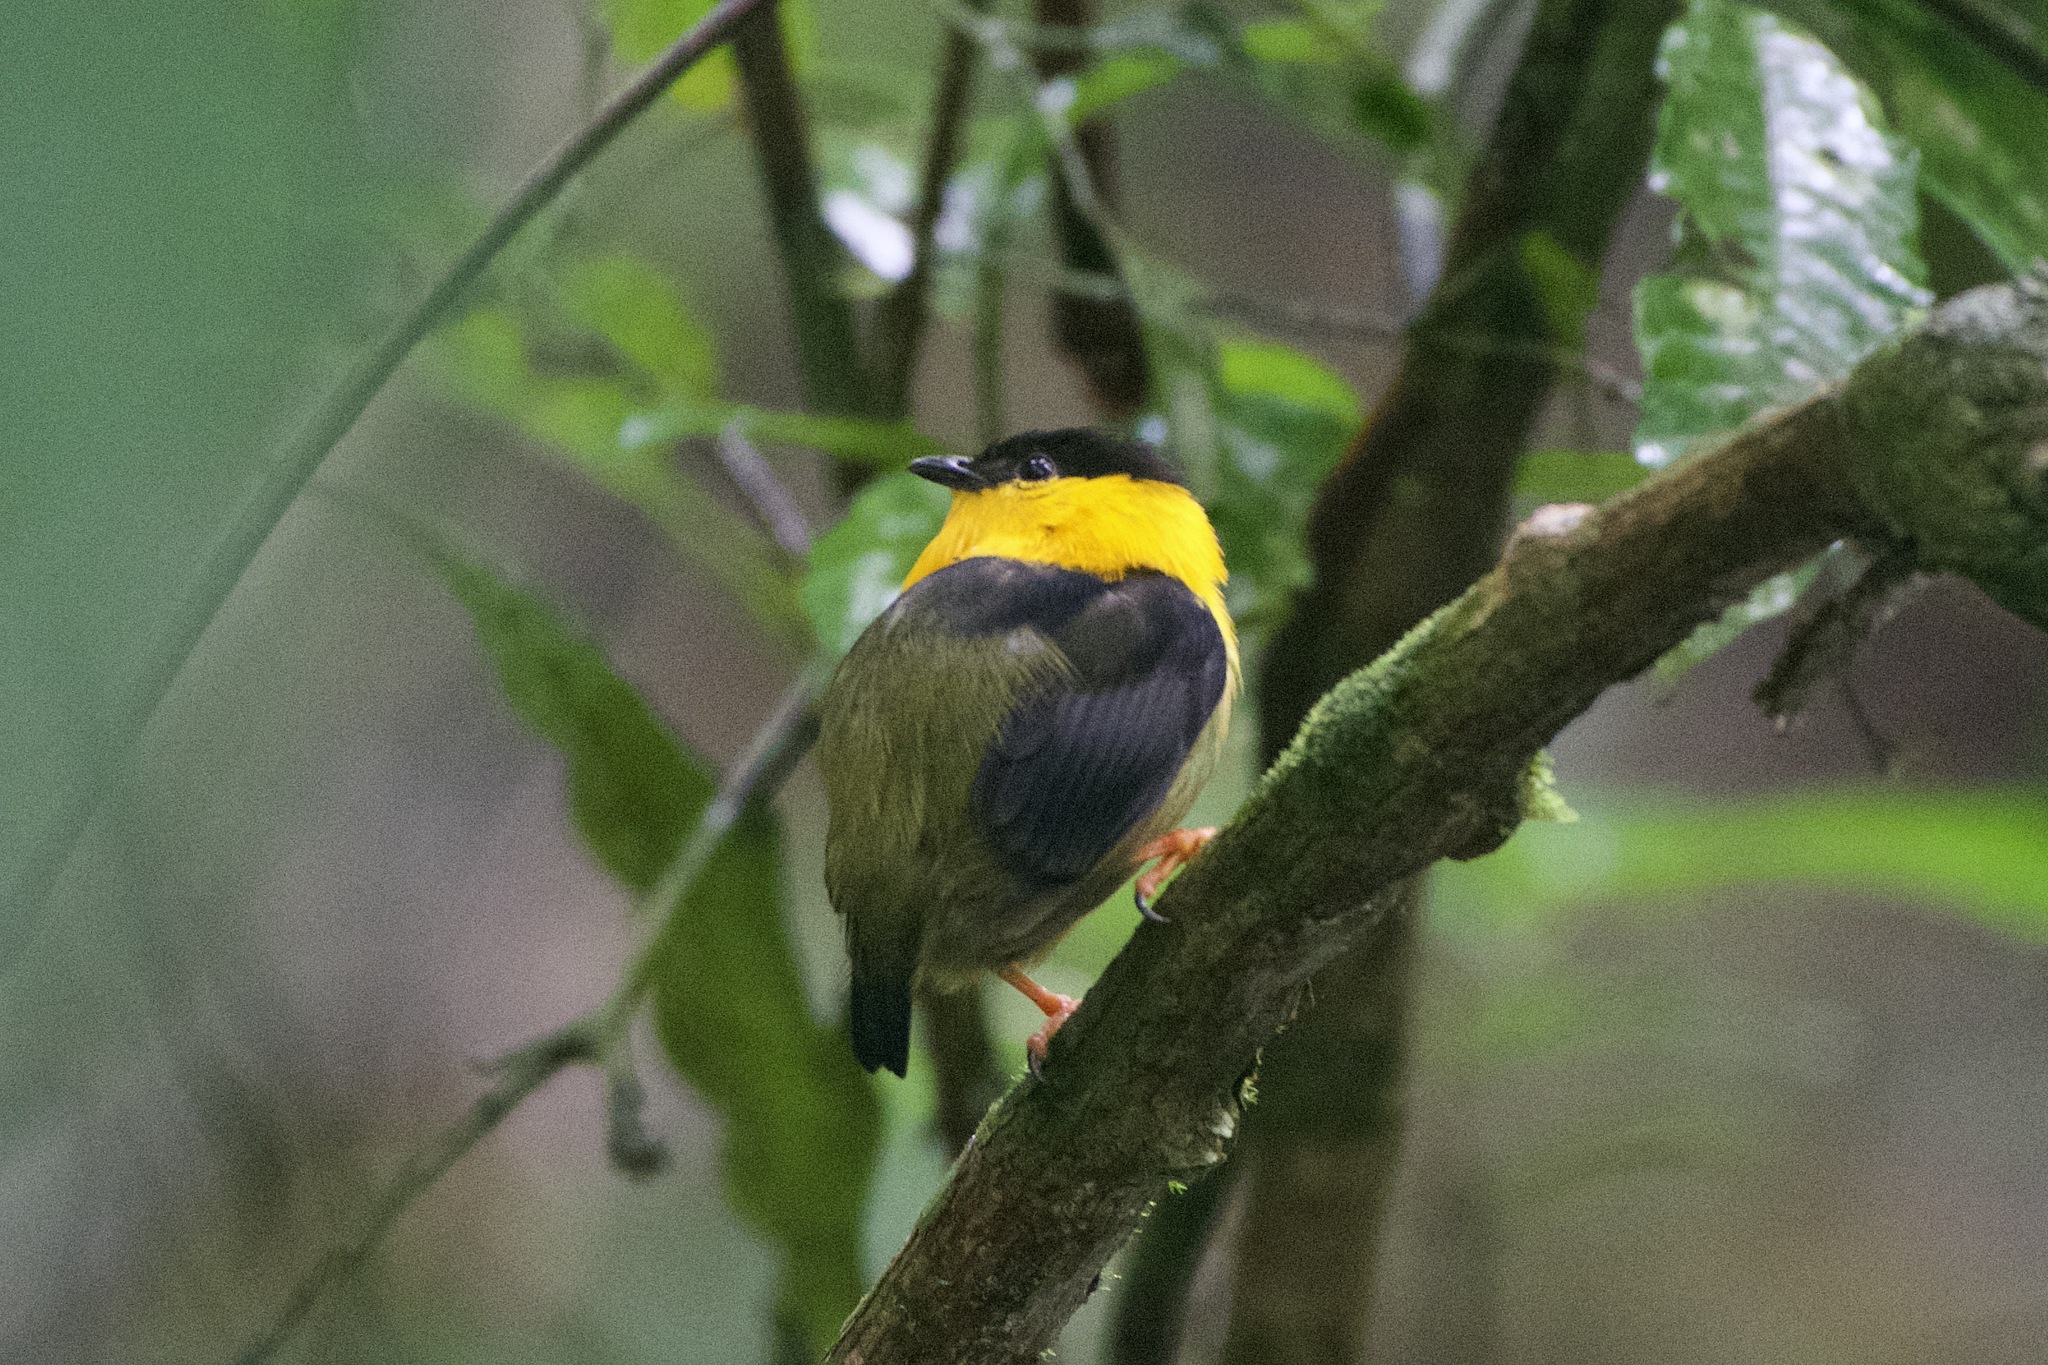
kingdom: Animalia
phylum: Chordata
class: Aves
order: Passeriformes
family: Pipridae
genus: Manacus
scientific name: Manacus vitellinus
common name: Golden-collared manakin
